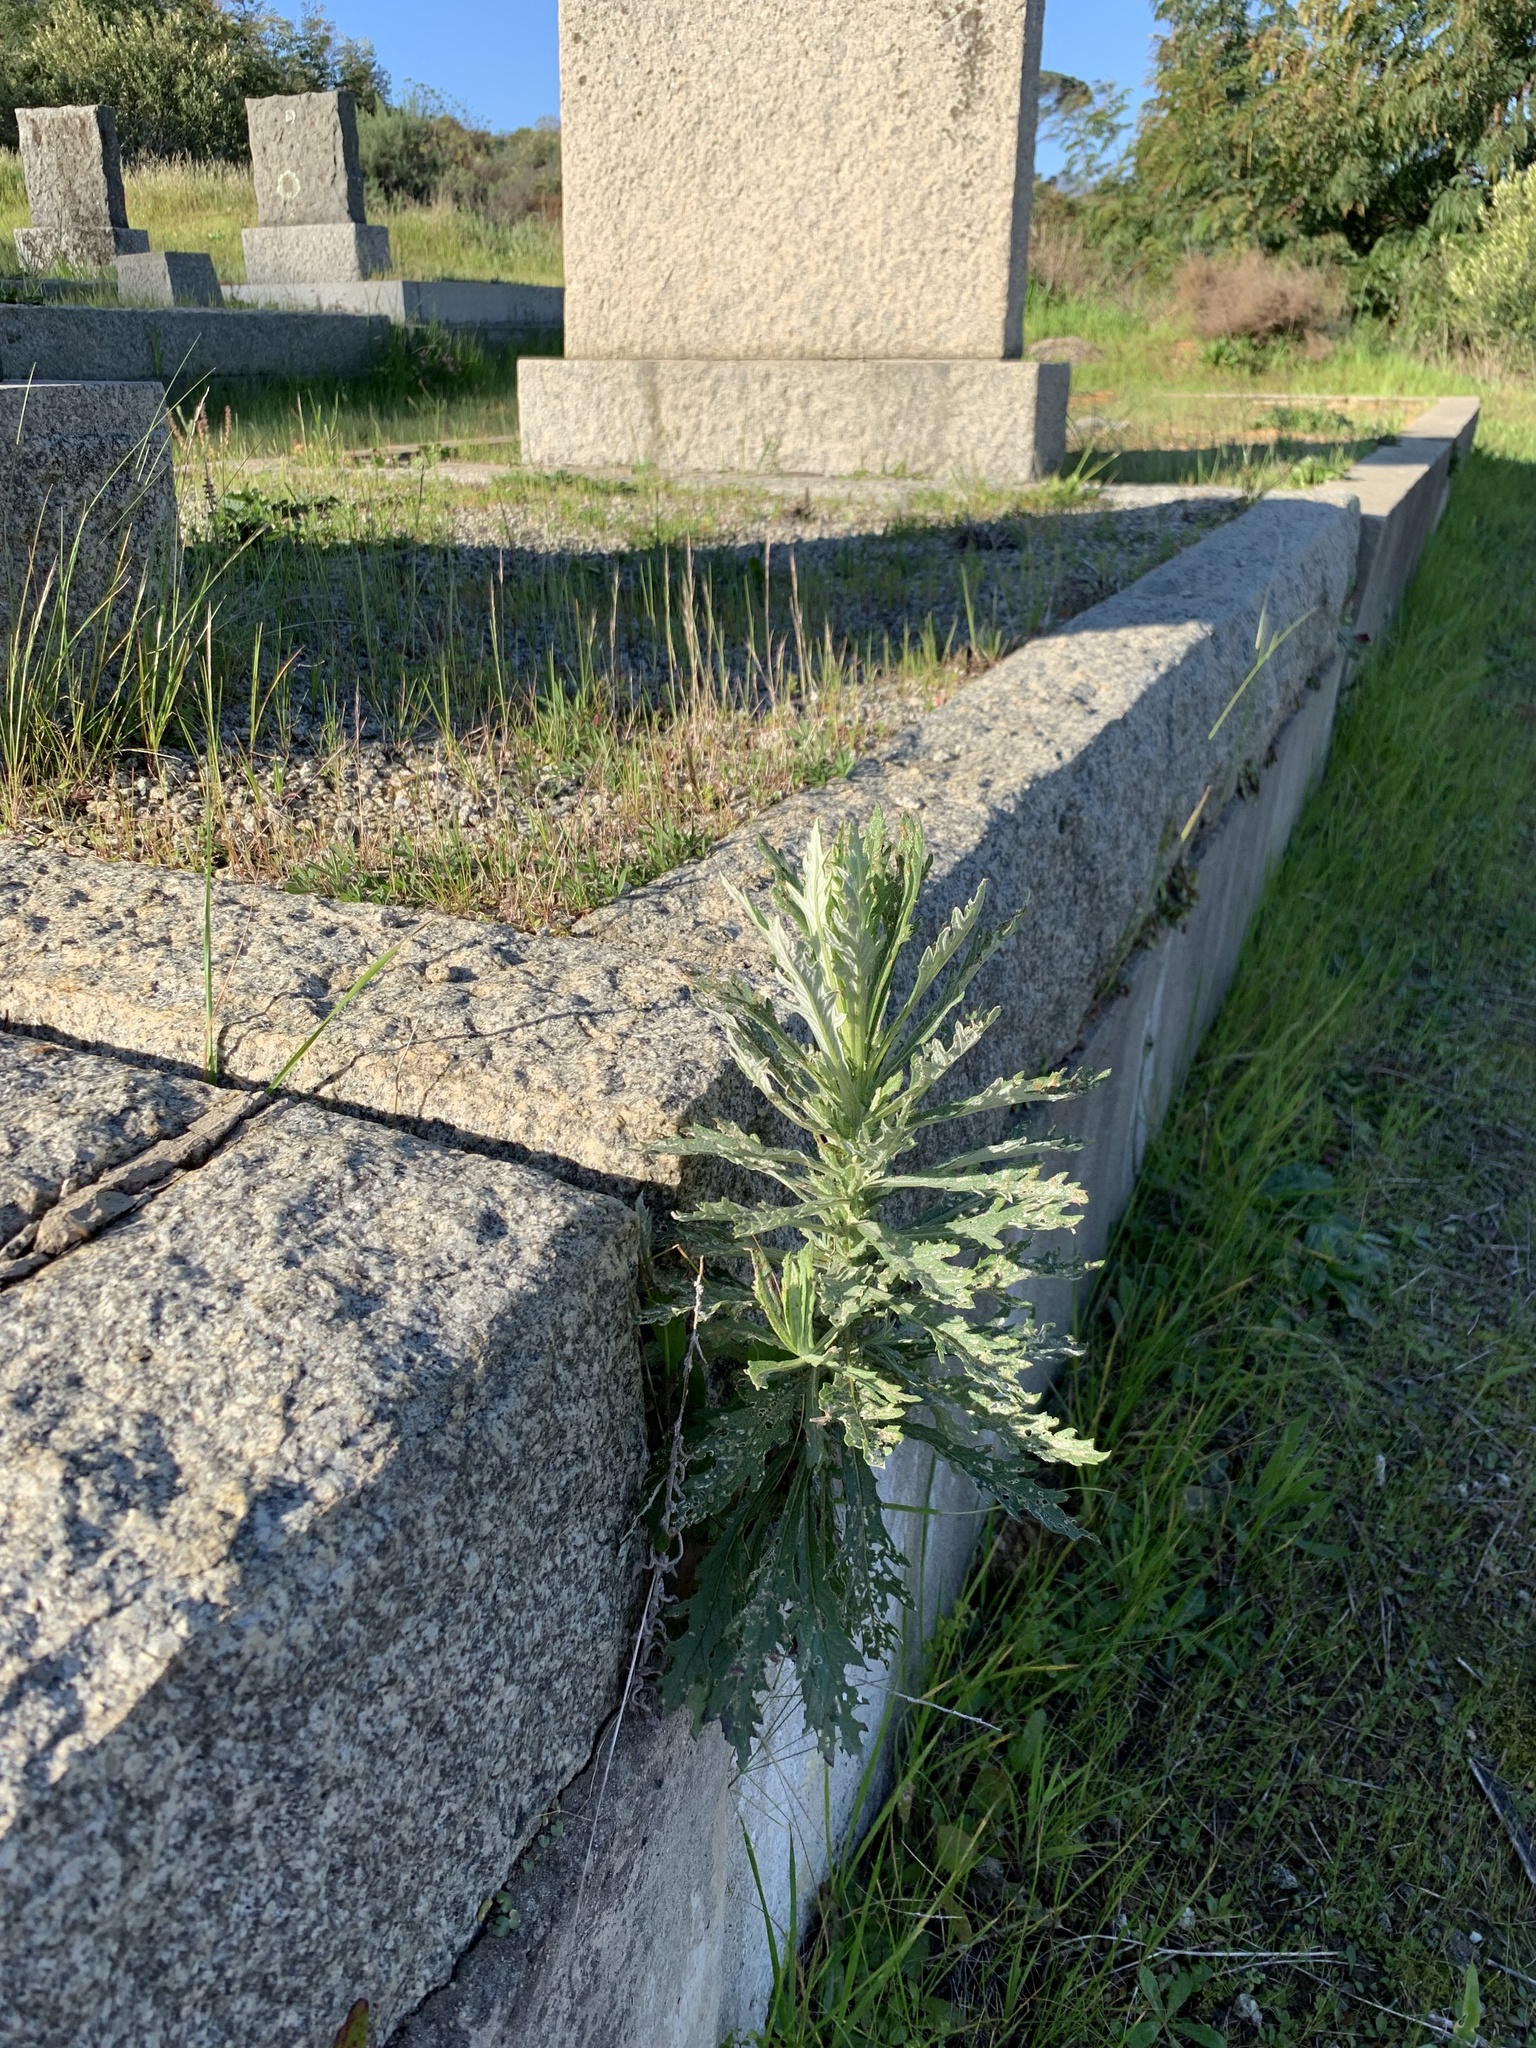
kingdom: Plantae
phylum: Tracheophyta
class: Magnoliopsida
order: Asterales
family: Asteraceae
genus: Senecio
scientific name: Senecio pterophorus
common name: Shoddy ragwort
